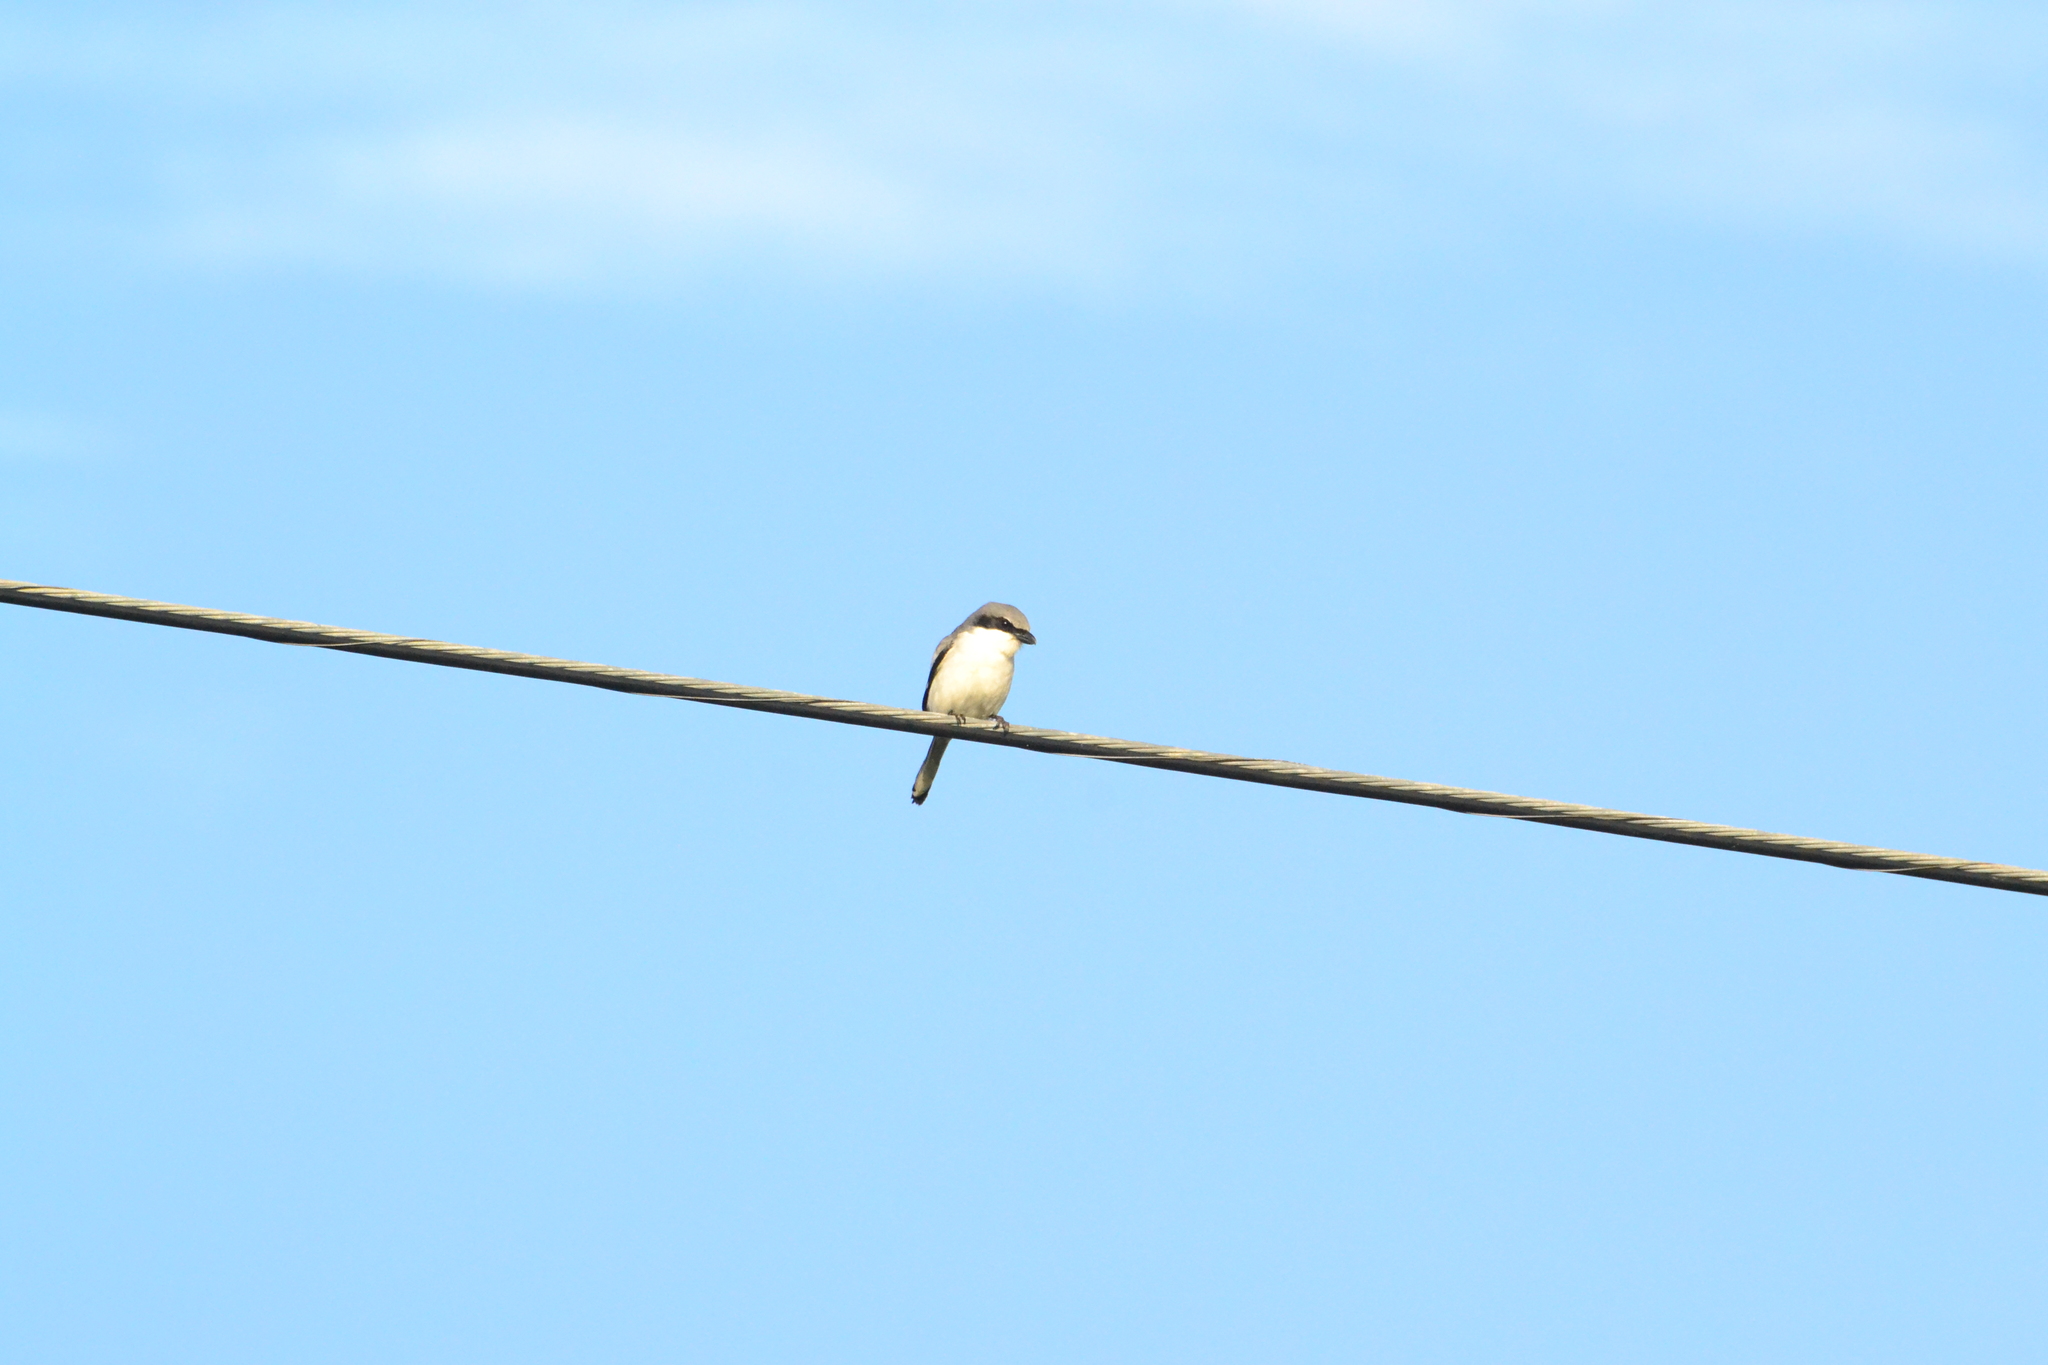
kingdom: Animalia
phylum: Chordata
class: Aves
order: Passeriformes
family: Laniidae
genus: Lanius
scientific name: Lanius ludovicianus
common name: Loggerhead shrike
